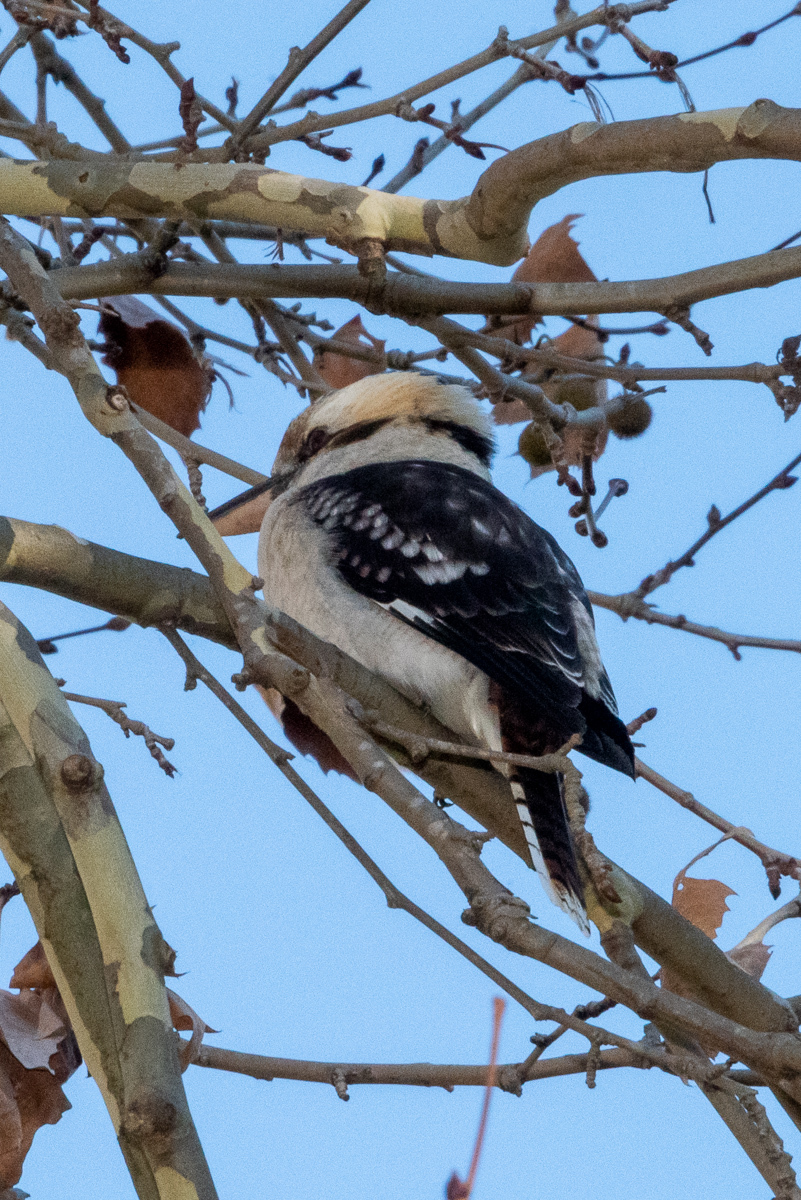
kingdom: Animalia
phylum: Chordata
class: Aves
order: Coraciiformes
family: Alcedinidae
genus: Dacelo
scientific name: Dacelo novaeguineae
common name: Laughing kookaburra
